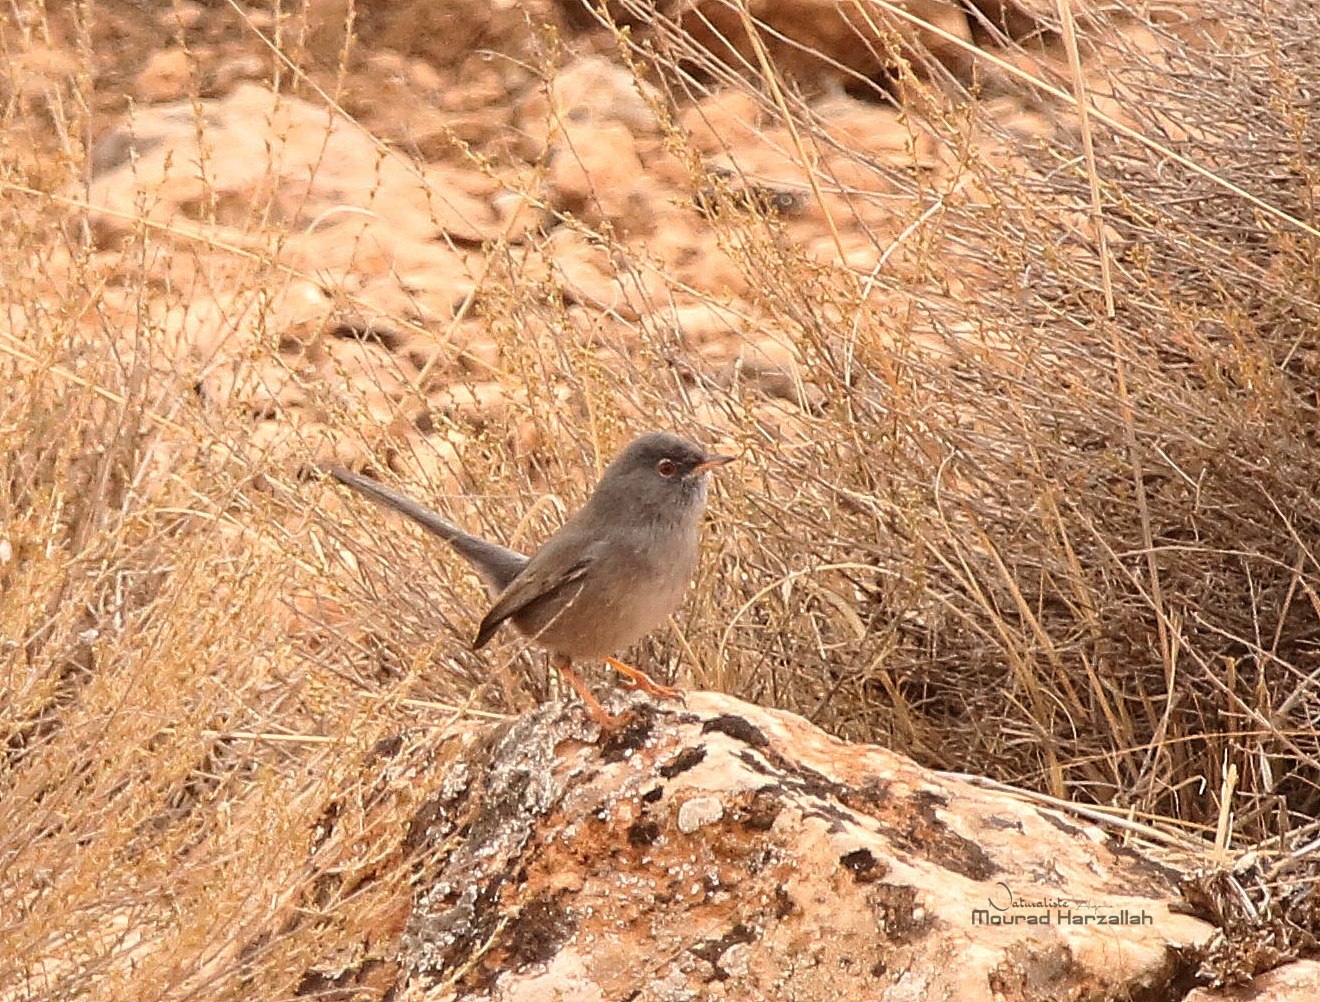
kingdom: Animalia
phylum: Chordata
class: Aves
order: Passeriformes
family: Sylviidae
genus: Sylvia
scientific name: Sylvia sarda
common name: Marmora's warbler
